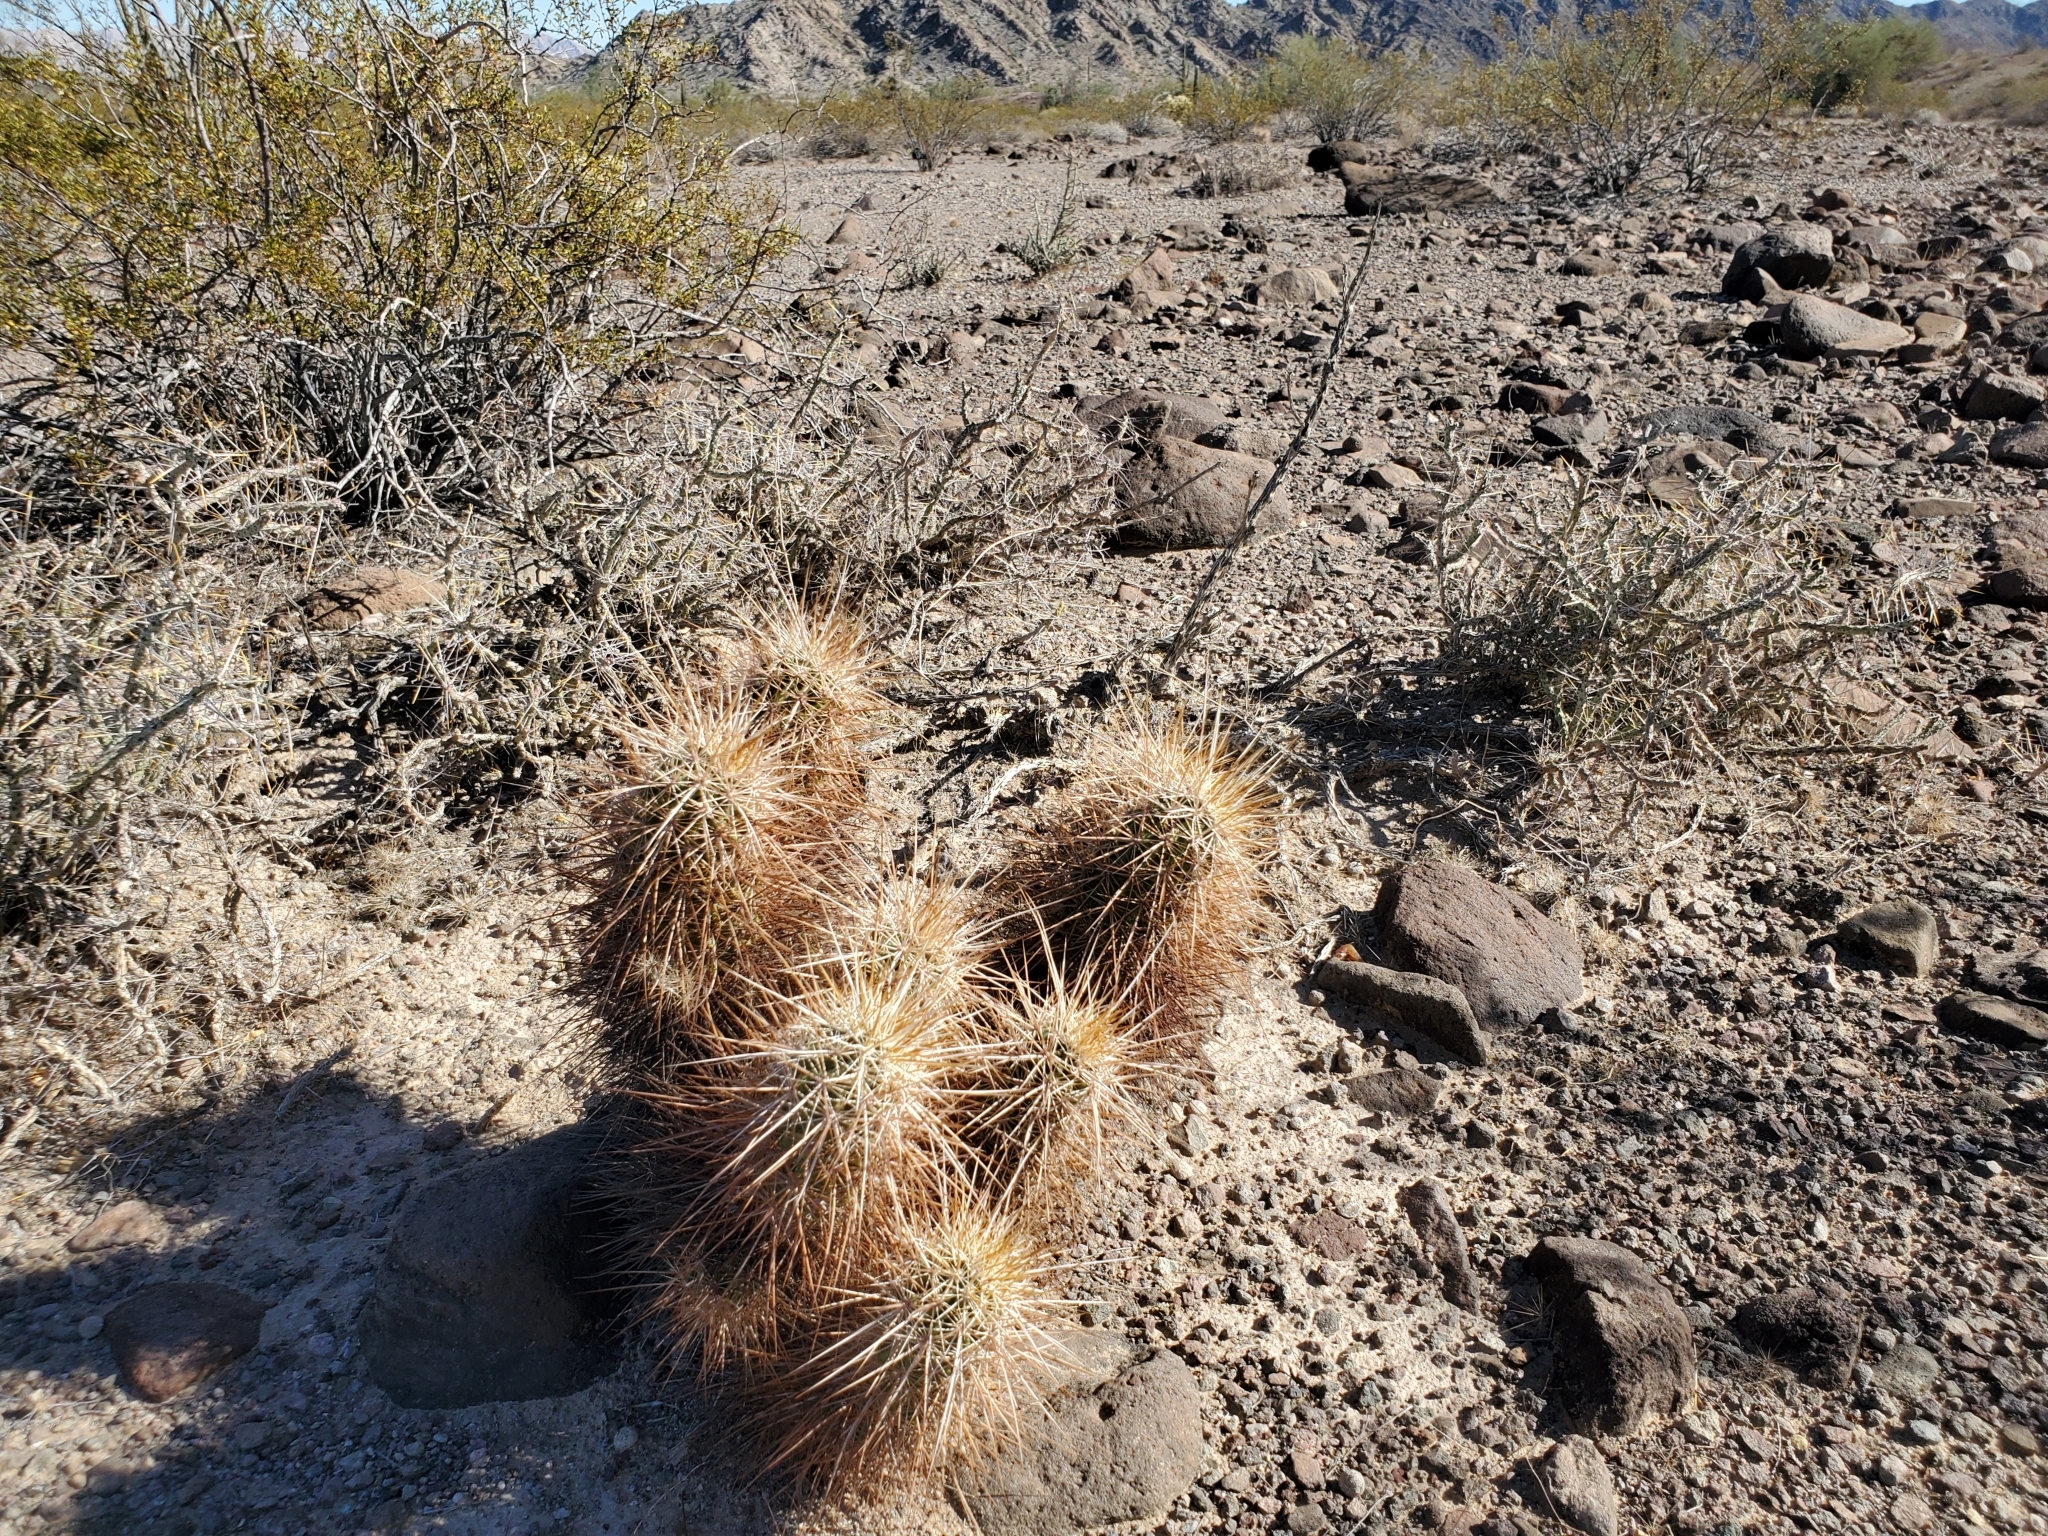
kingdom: Plantae
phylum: Tracheophyta
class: Magnoliopsida
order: Caryophyllales
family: Cactaceae
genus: Echinocereus
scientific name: Echinocereus engelmannii
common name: Engelmann's hedgehog cactus
